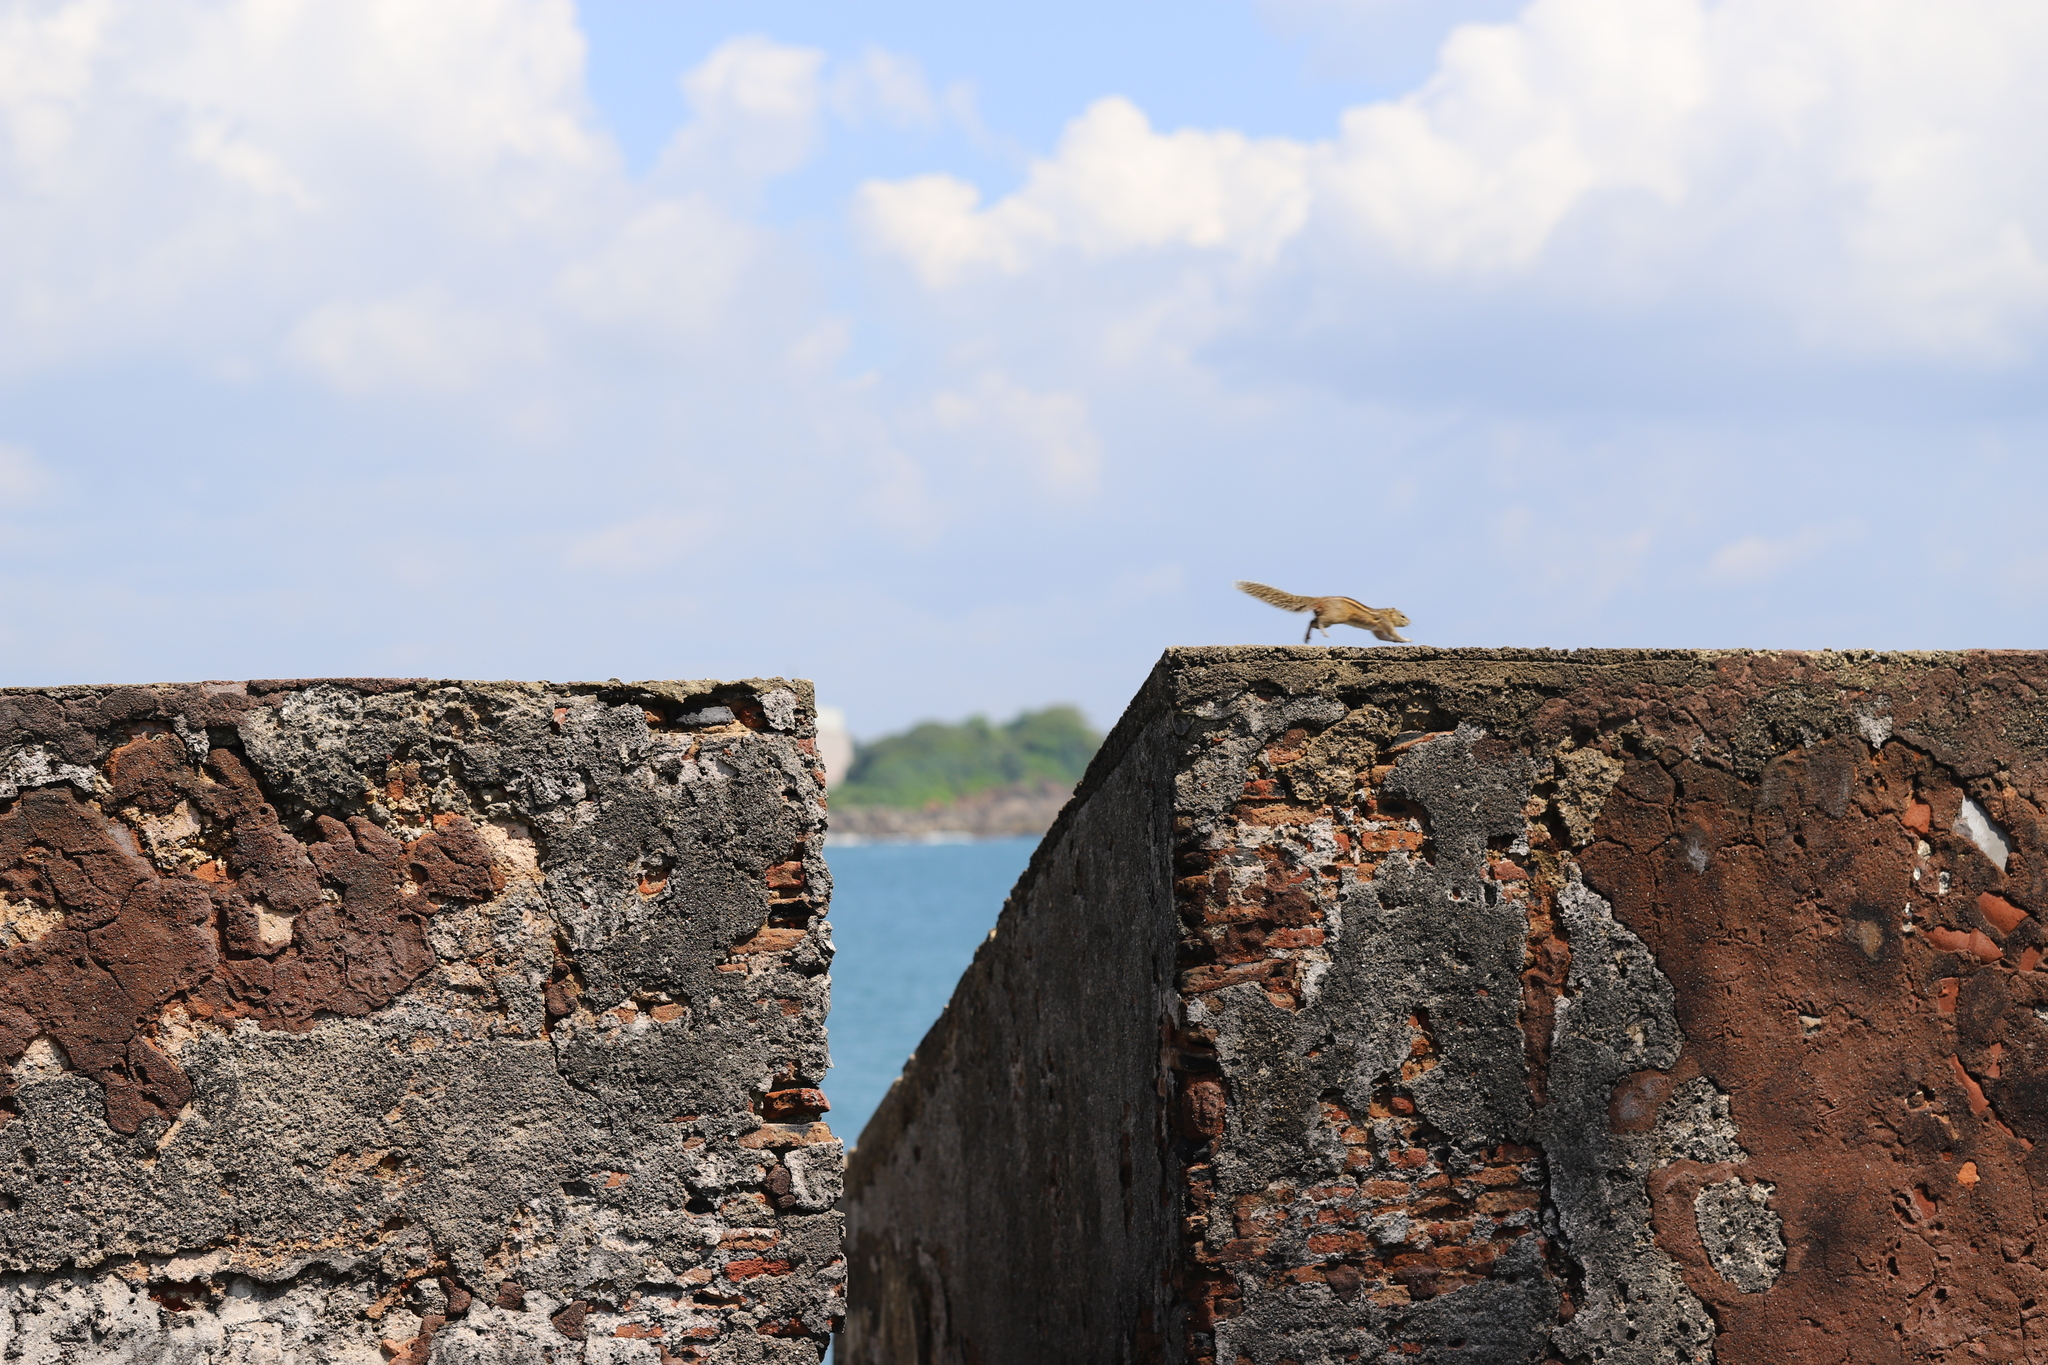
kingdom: Animalia
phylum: Chordata
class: Mammalia
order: Rodentia
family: Sciuridae
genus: Funambulus
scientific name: Funambulus palmarum
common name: Indian palm squirrel
